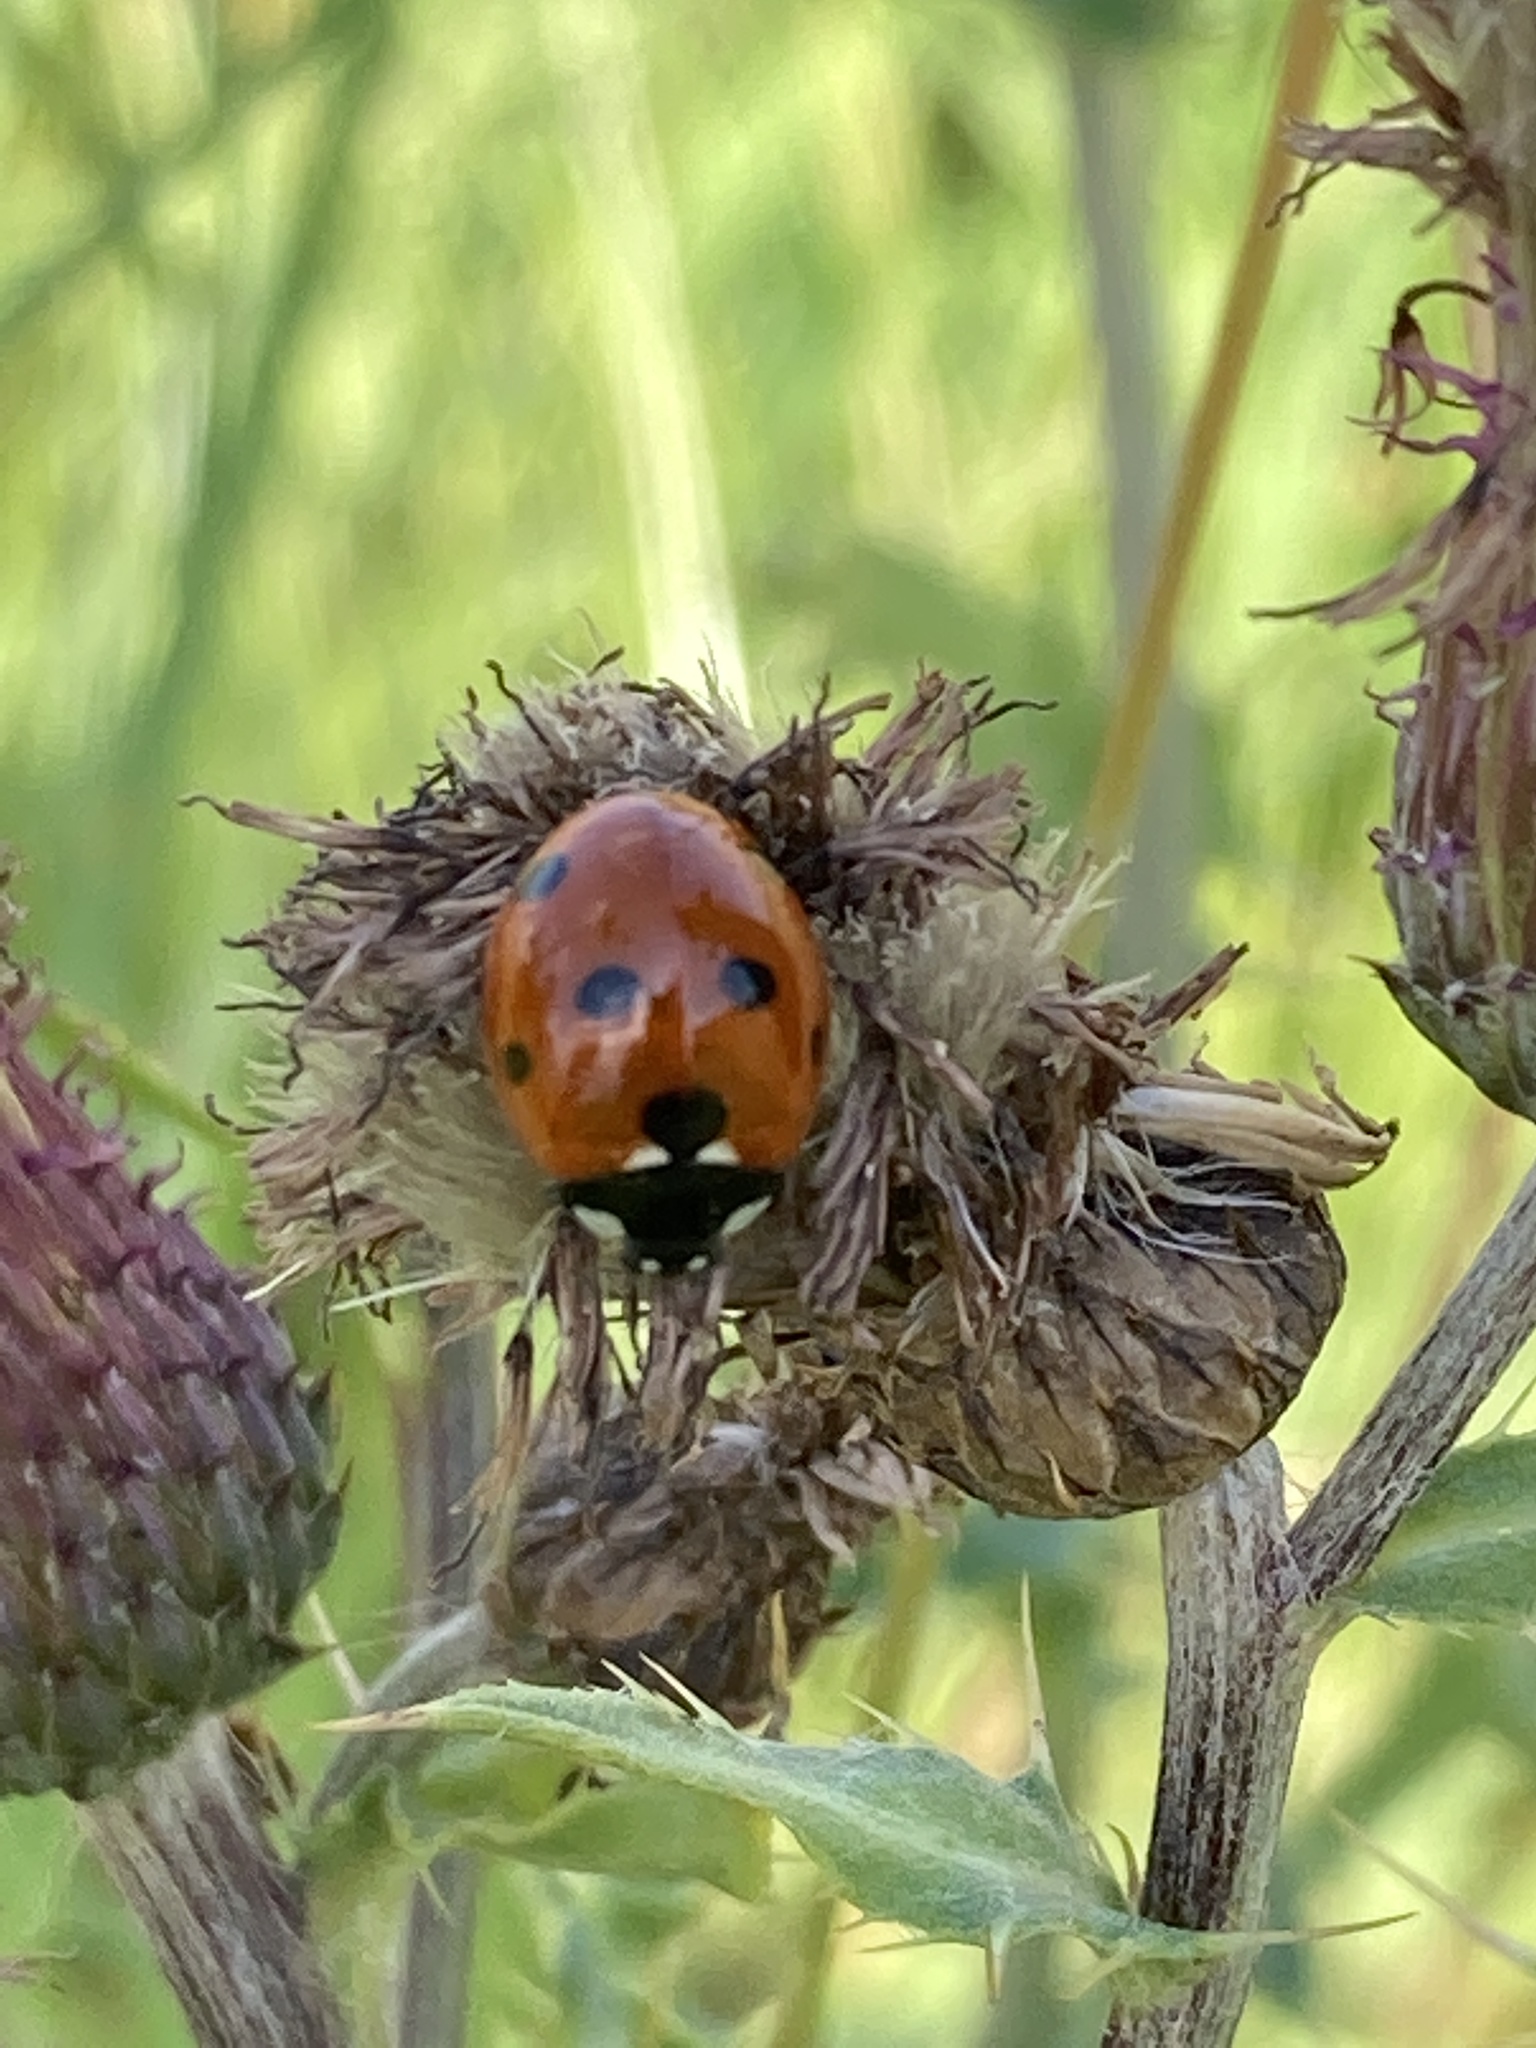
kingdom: Animalia
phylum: Arthropoda
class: Insecta
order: Coleoptera
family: Coccinellidae
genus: Coccinella
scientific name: Coccinella septempunctata
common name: Sevenspotted lady beetle
